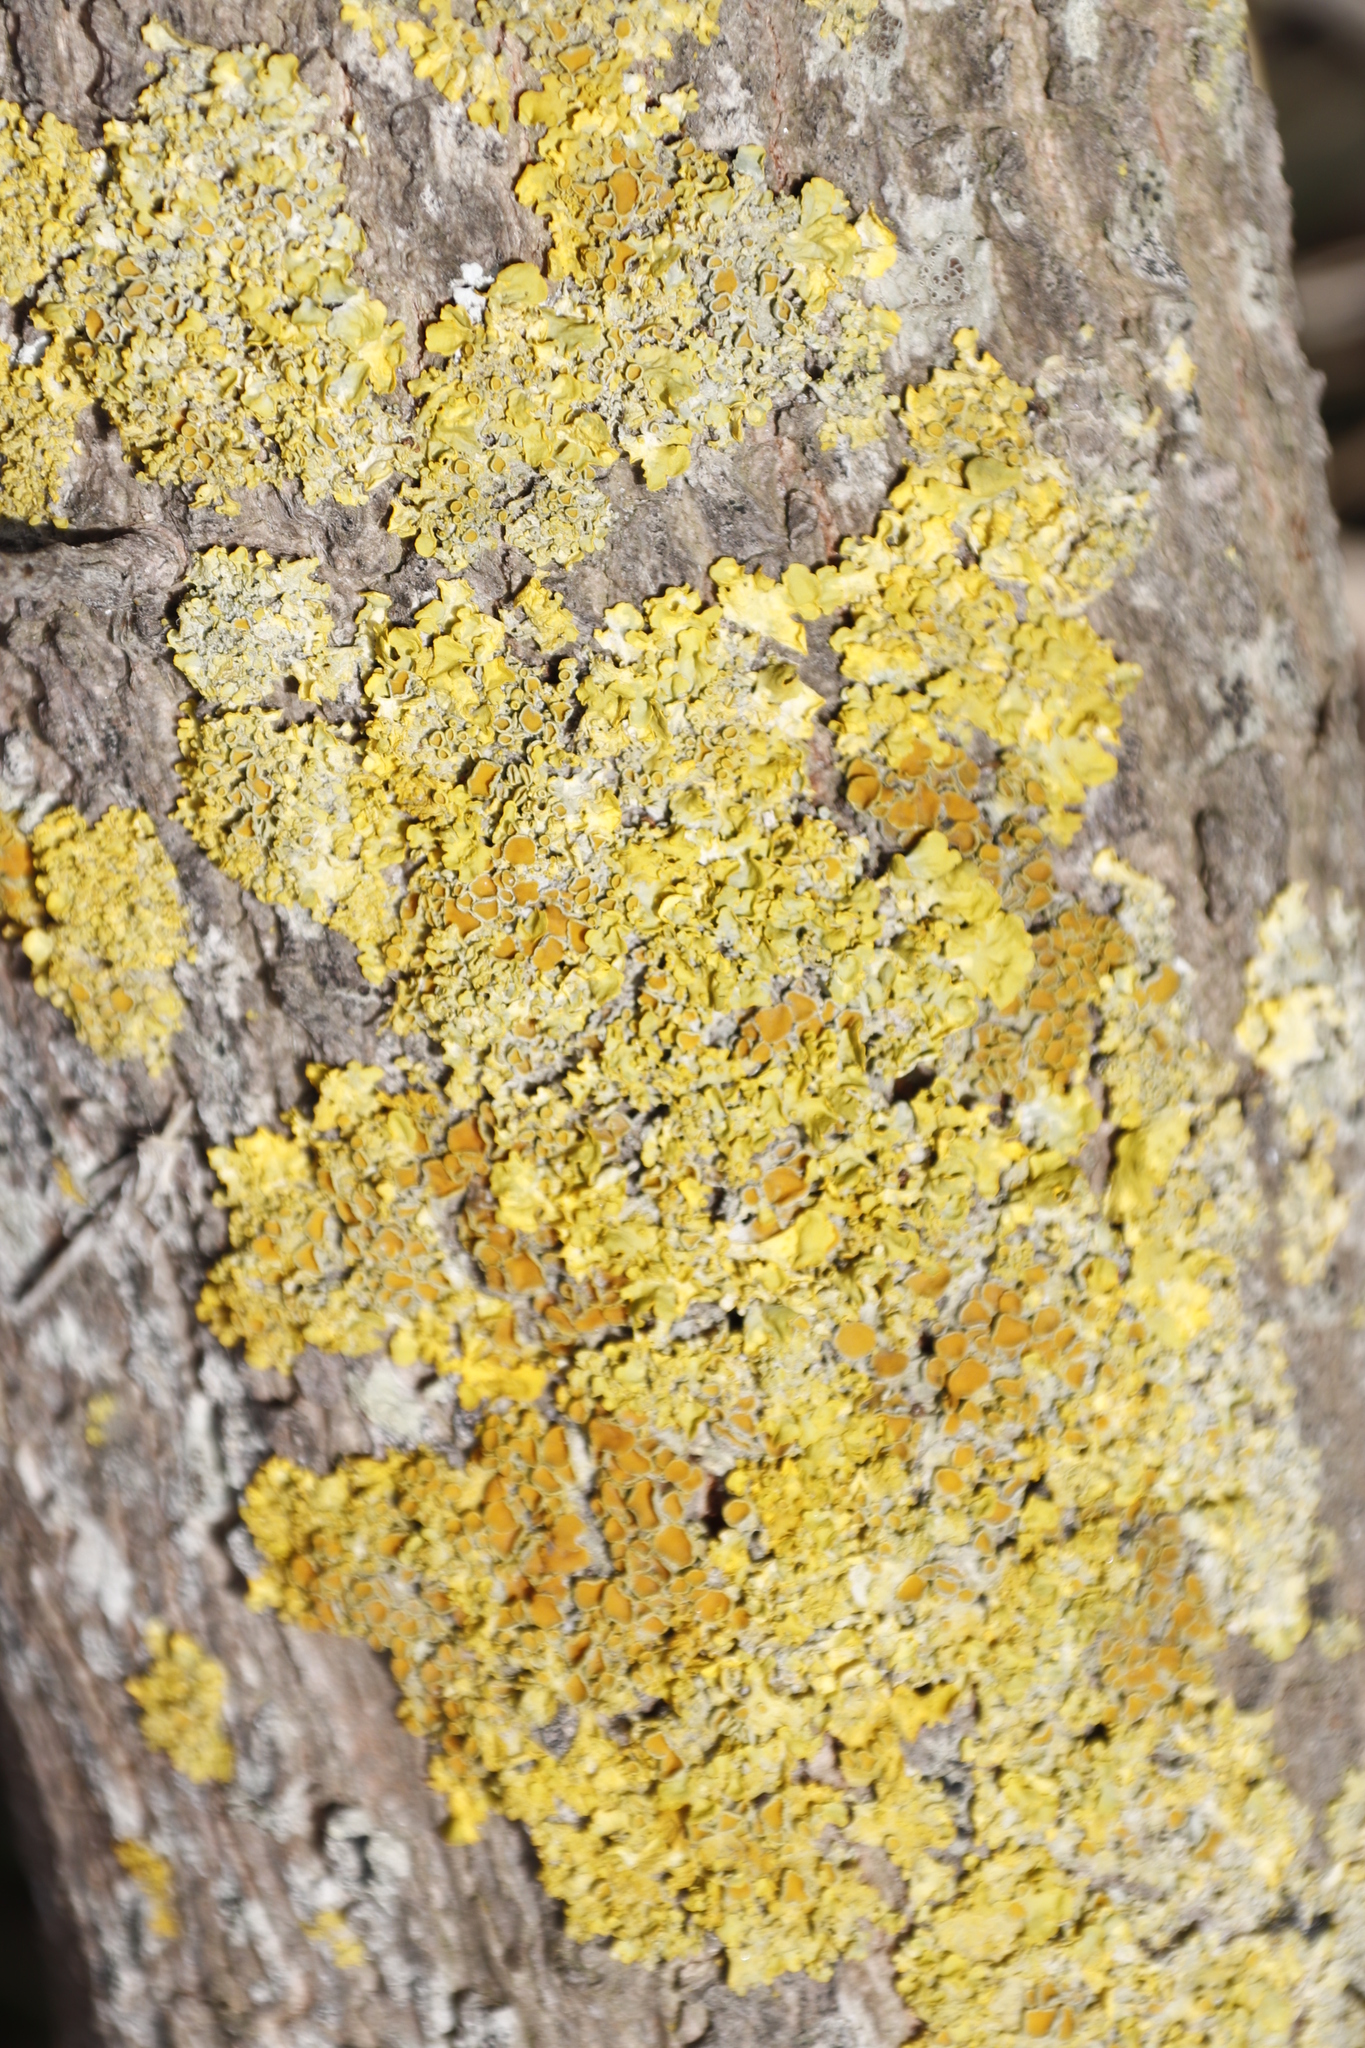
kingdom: Fungi
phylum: Ascomycota
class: Lecanoromycetes
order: Teloschistales
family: Teloschistaceae
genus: Xanthoria
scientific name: Xanthoria parietina
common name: Common orange lichen
